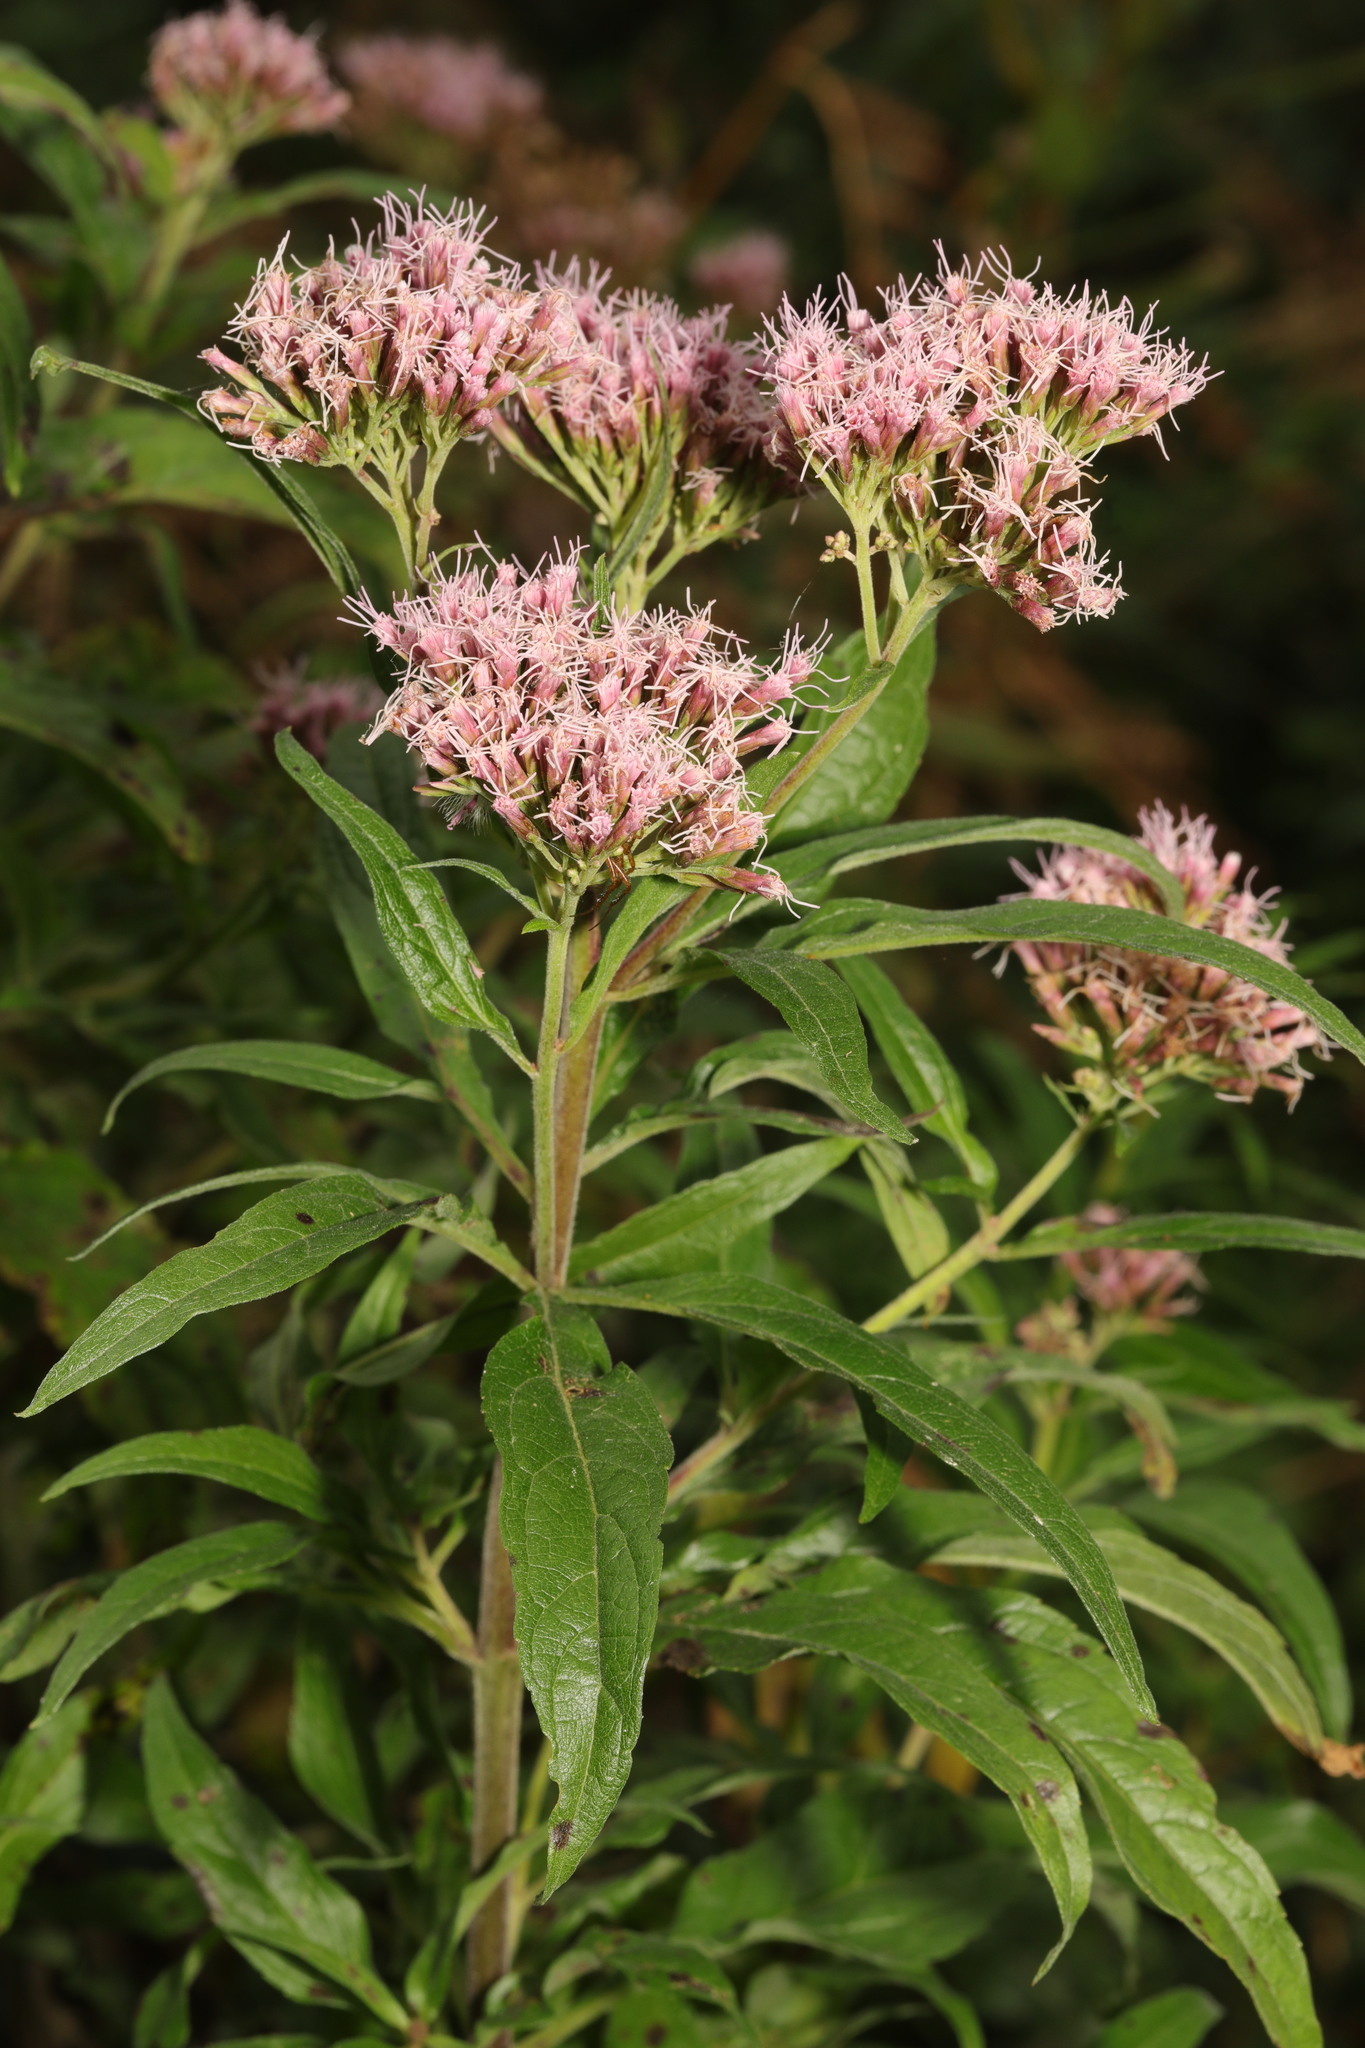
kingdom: Plantae
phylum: Tracheophyta
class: Magnoliopsida
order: Asterales
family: Asteraceae
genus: Eupatorium
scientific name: Eupatorium cannabinum
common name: Hemp-agrimony
